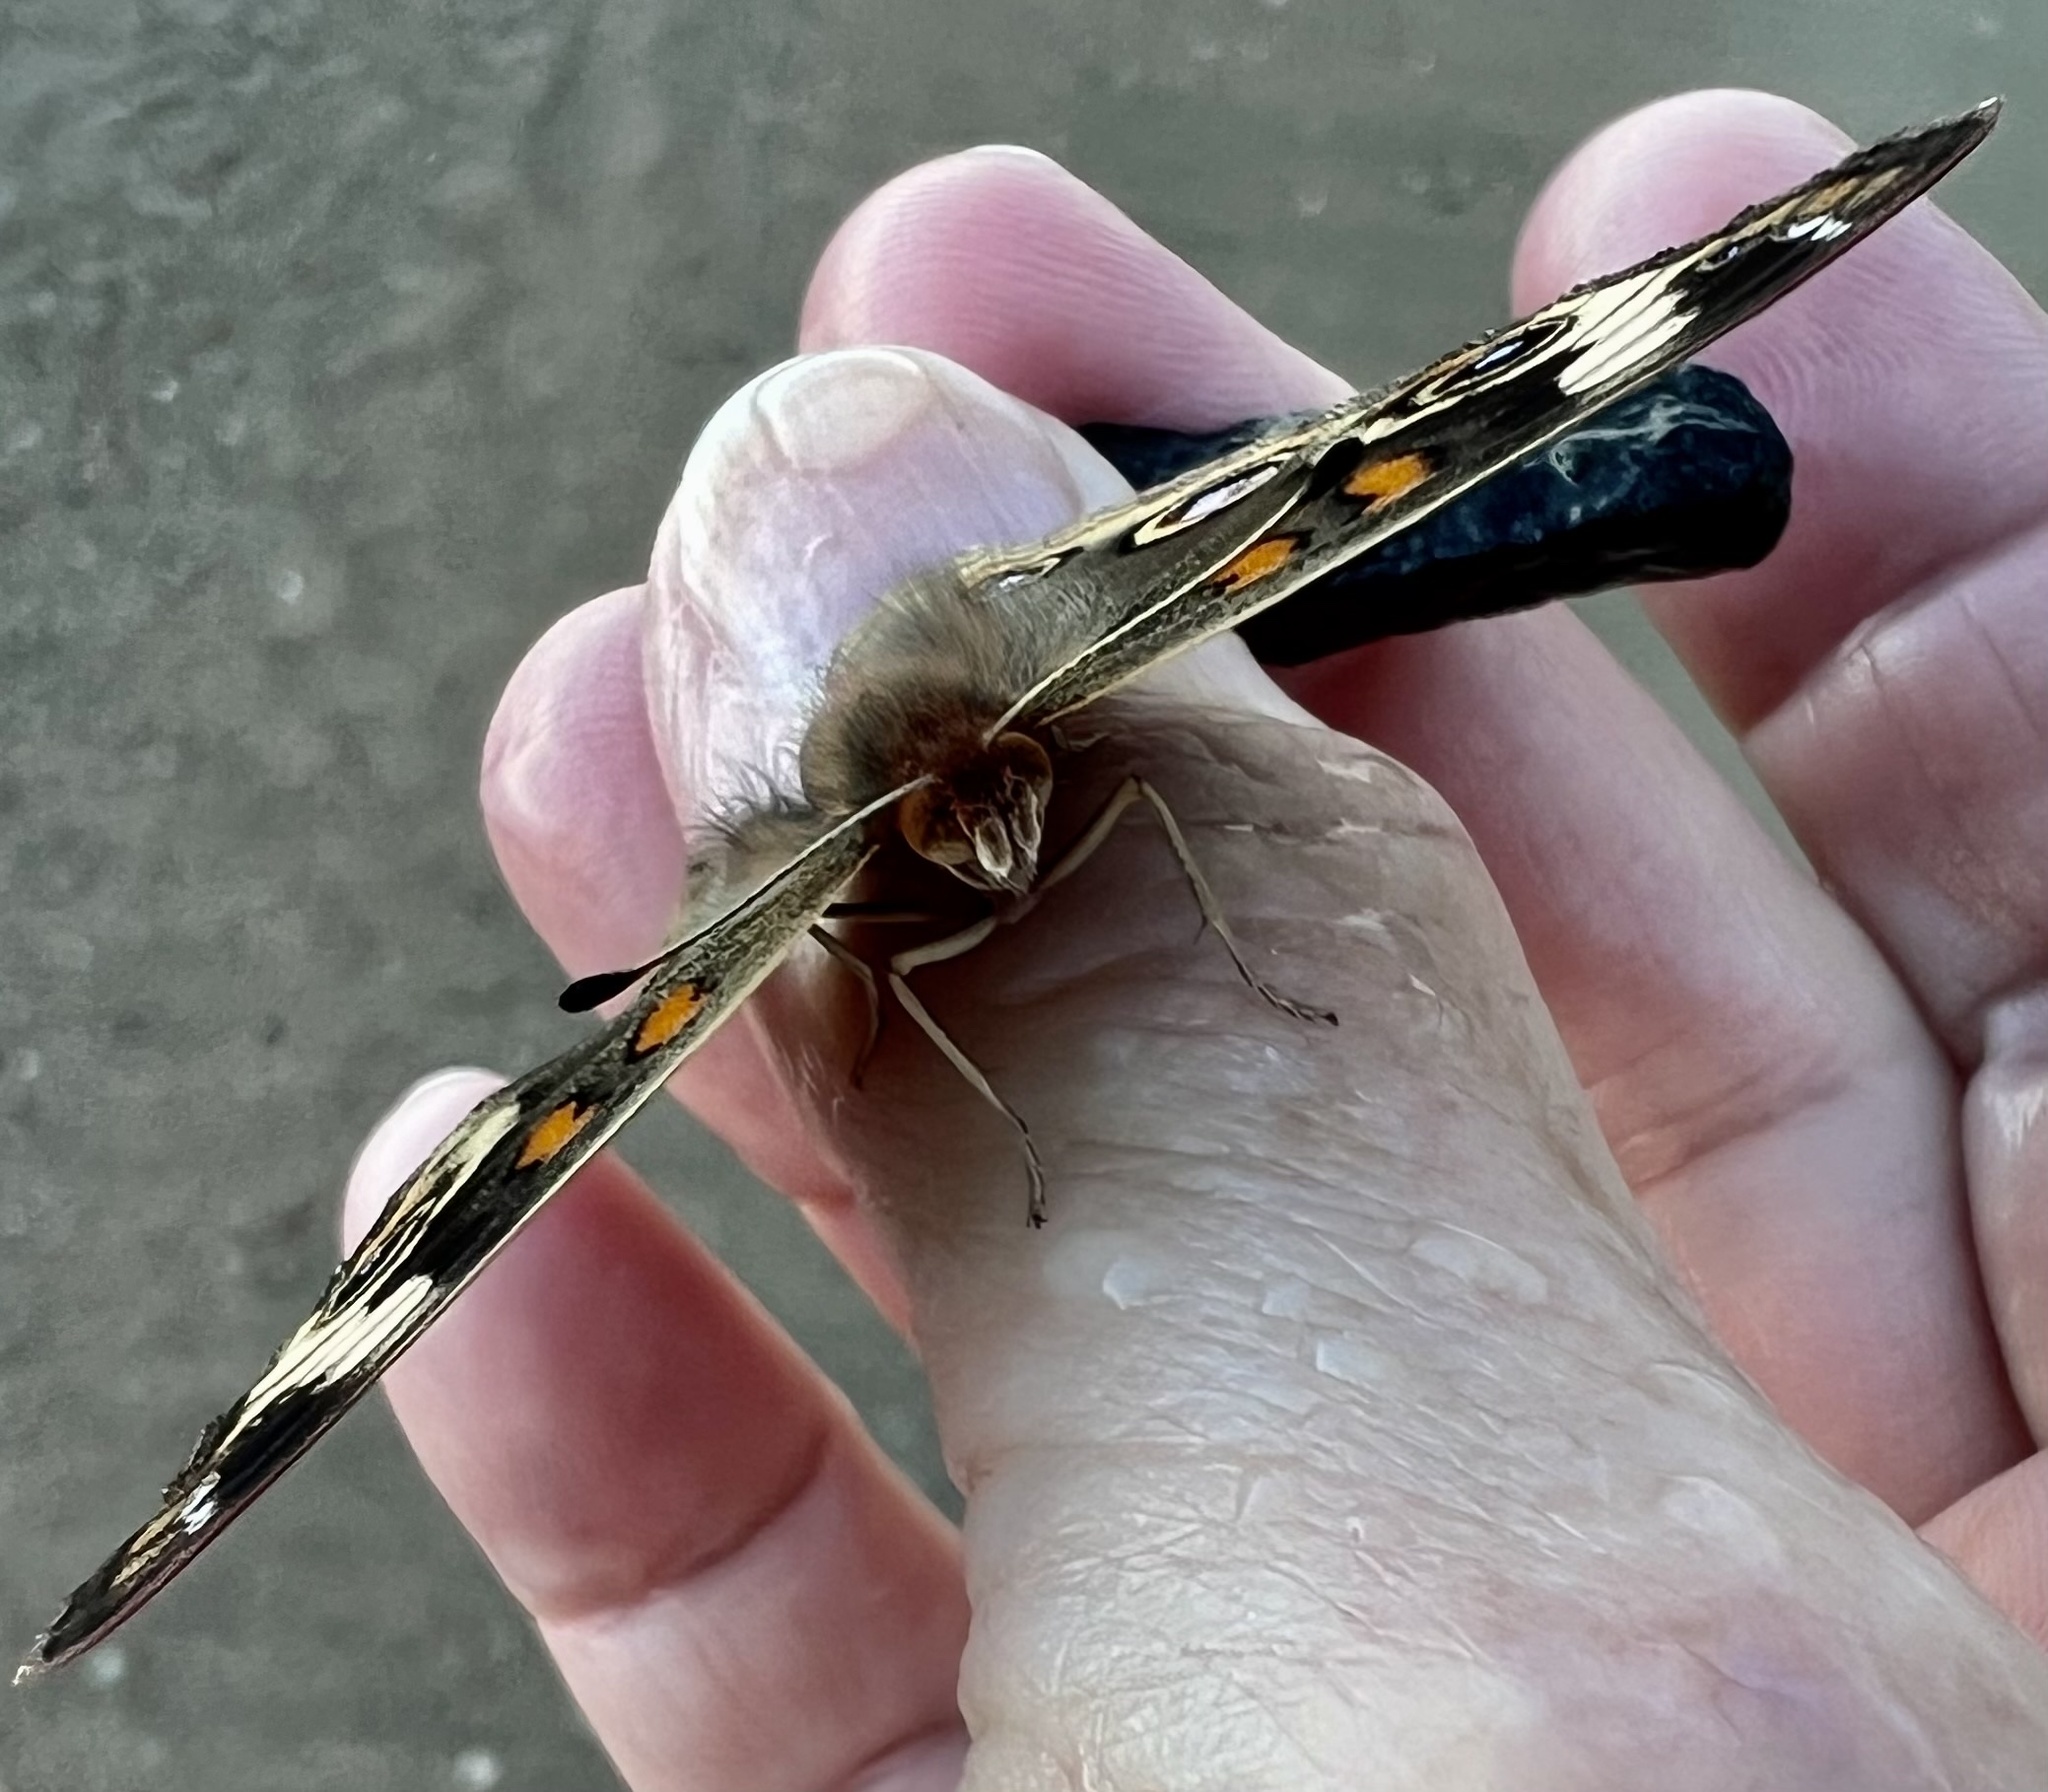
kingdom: Animalia
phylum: Arthropoda
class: Insecta
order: Lepidoptera
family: Nymphalidae
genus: Junonia
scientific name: Junonia coenia
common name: Common buckeye
